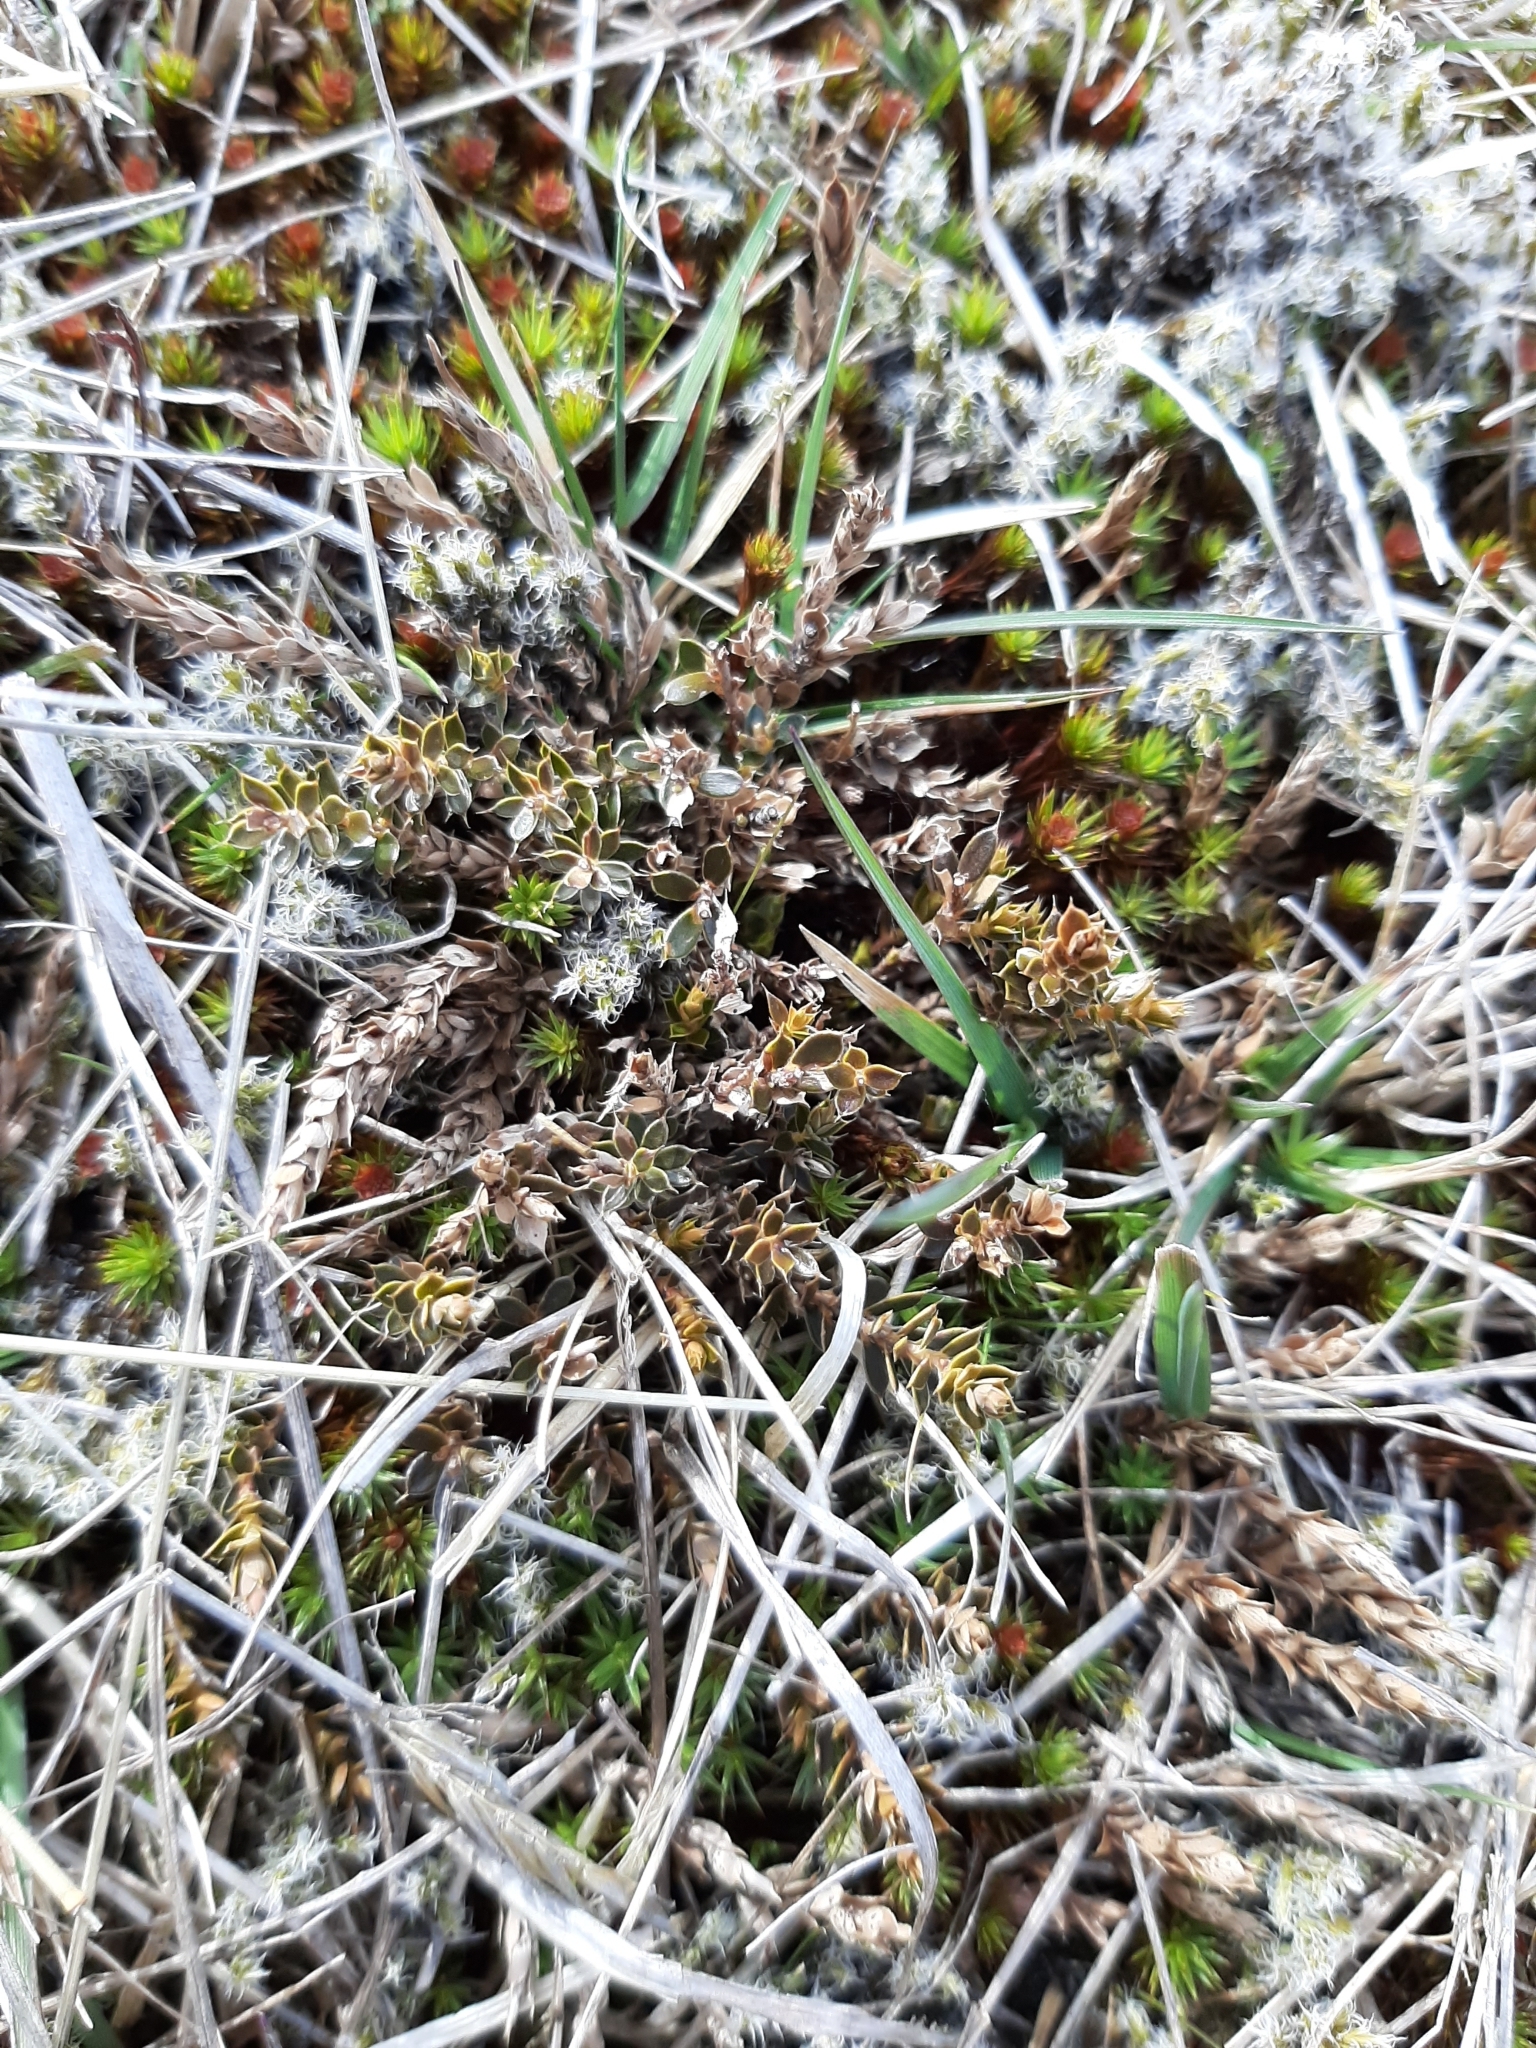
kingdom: Plantae
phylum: Tracheophyta
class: Magnoliopsida
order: Ericales
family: Ericaceae
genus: Styphelia
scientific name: Styphelia nesophila
